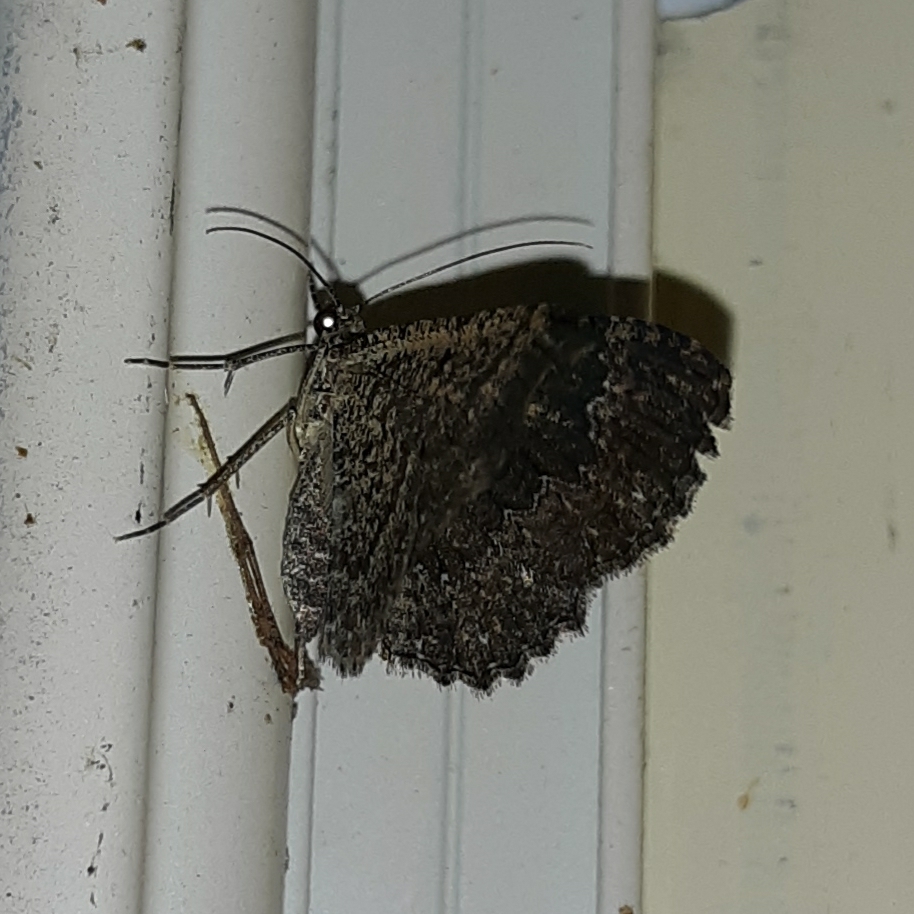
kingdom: Animalia
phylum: Arthropoda
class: Insecta
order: Lepidoptera
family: Geometridae
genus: Disclisioprocta
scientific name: Disclisioprocta stellata
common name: Somber carpet
